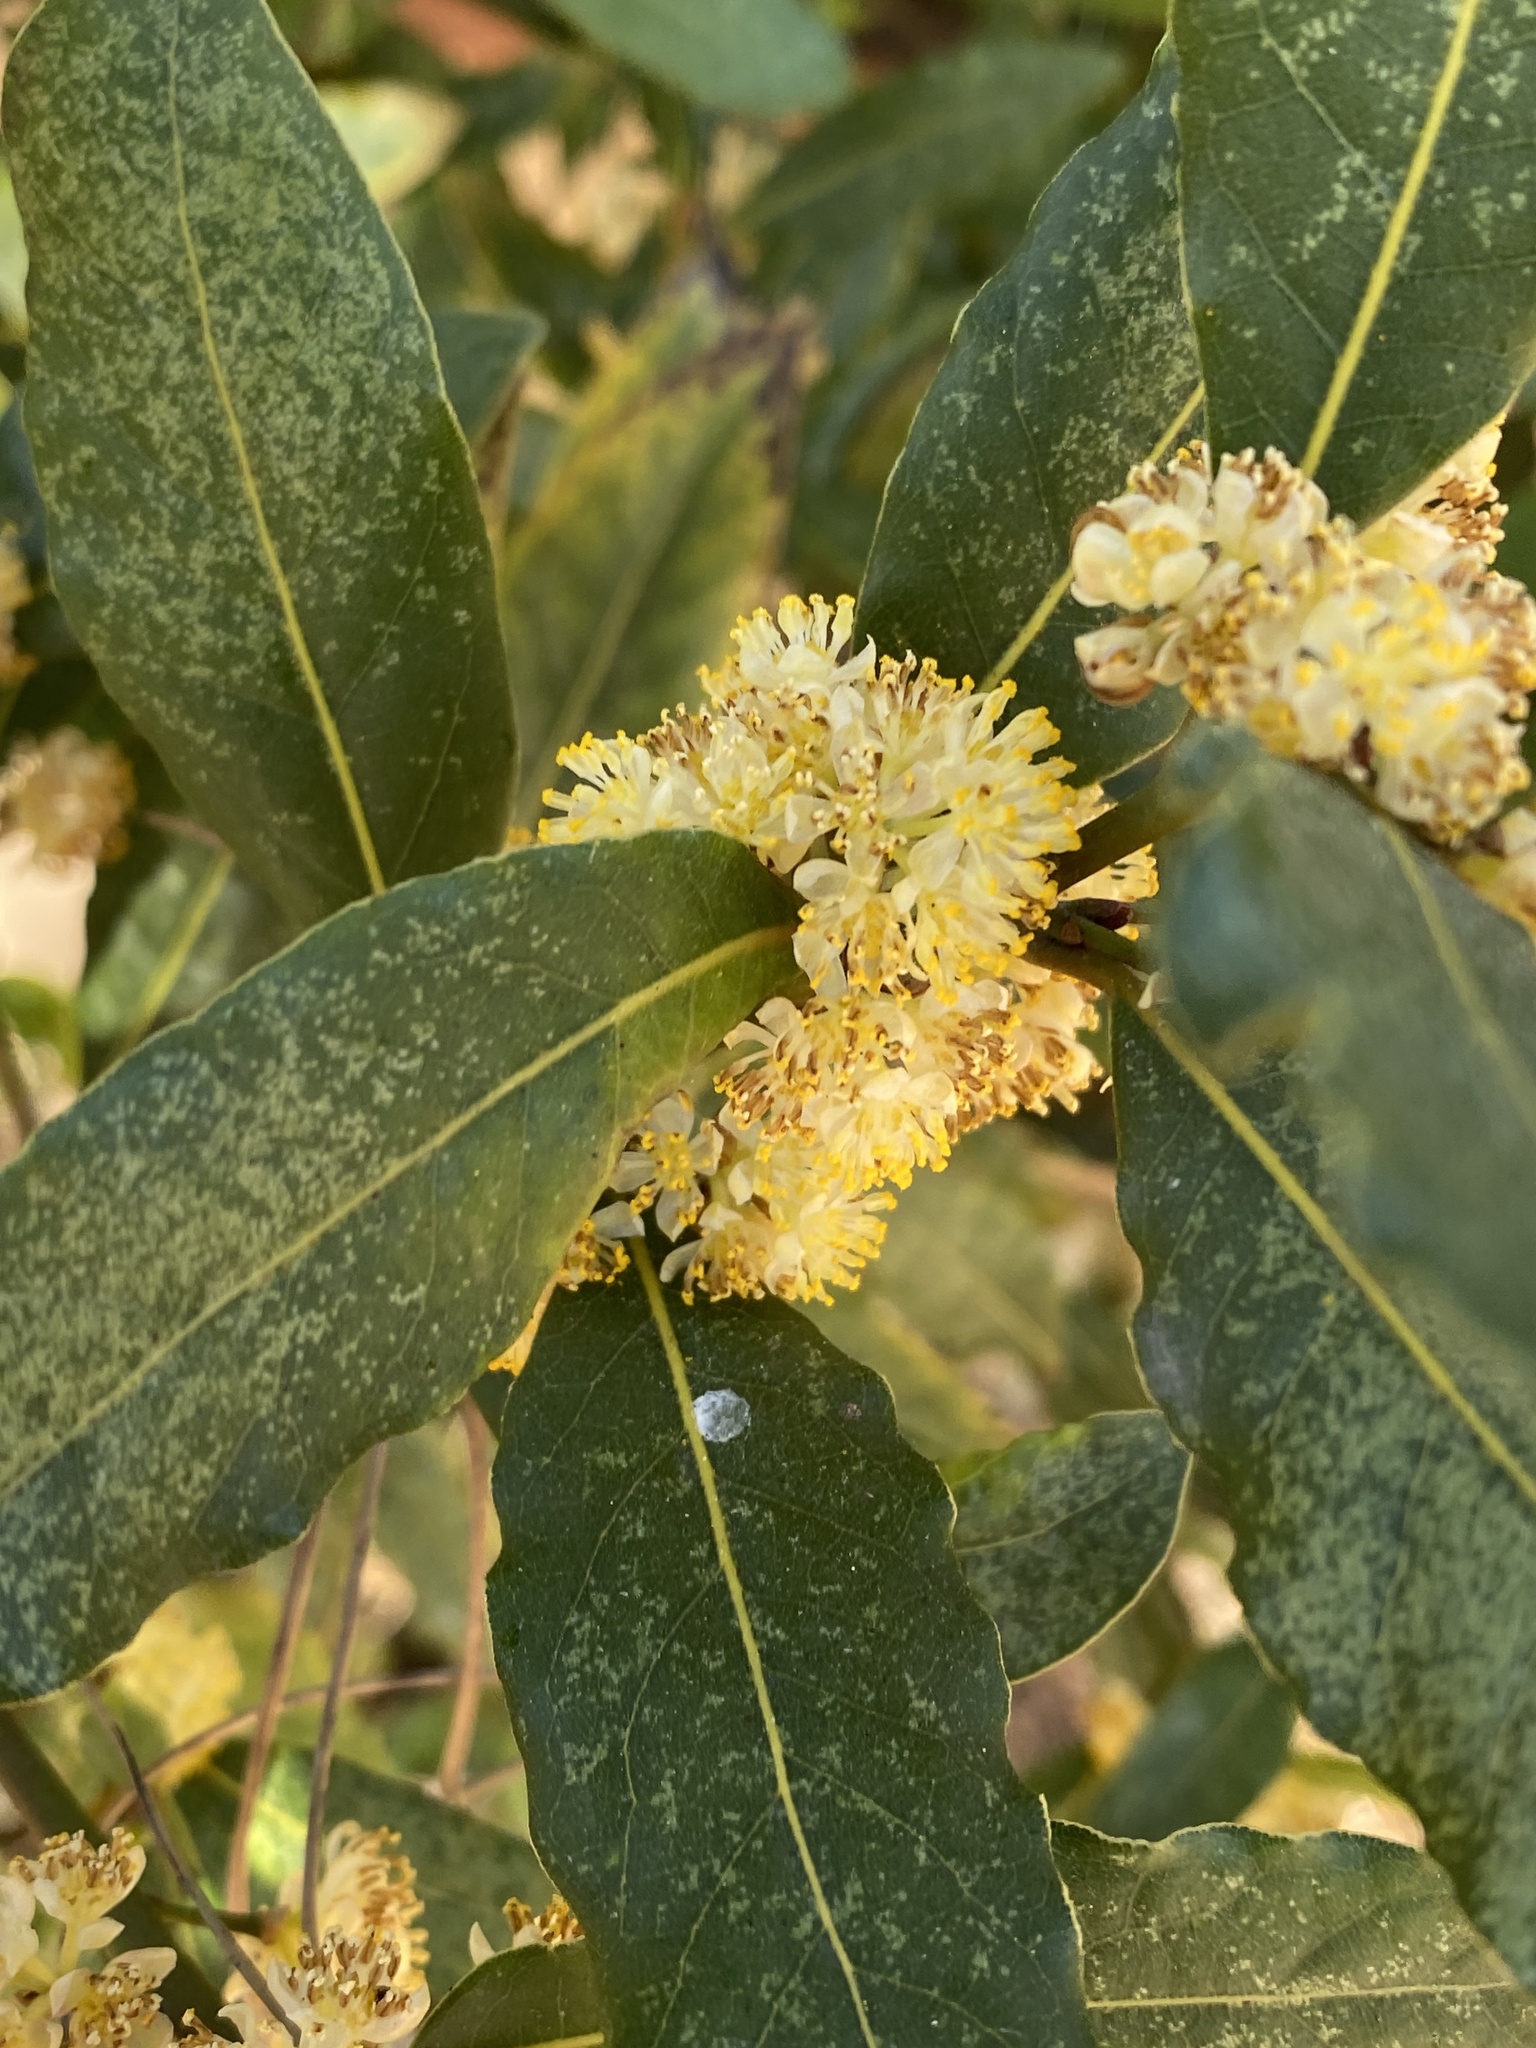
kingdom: Plantae
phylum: Tracheophyta
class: Magnoliopsida
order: Laurales
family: Lauraceae
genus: Laurus
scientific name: Laurus nobilis
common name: Bay
